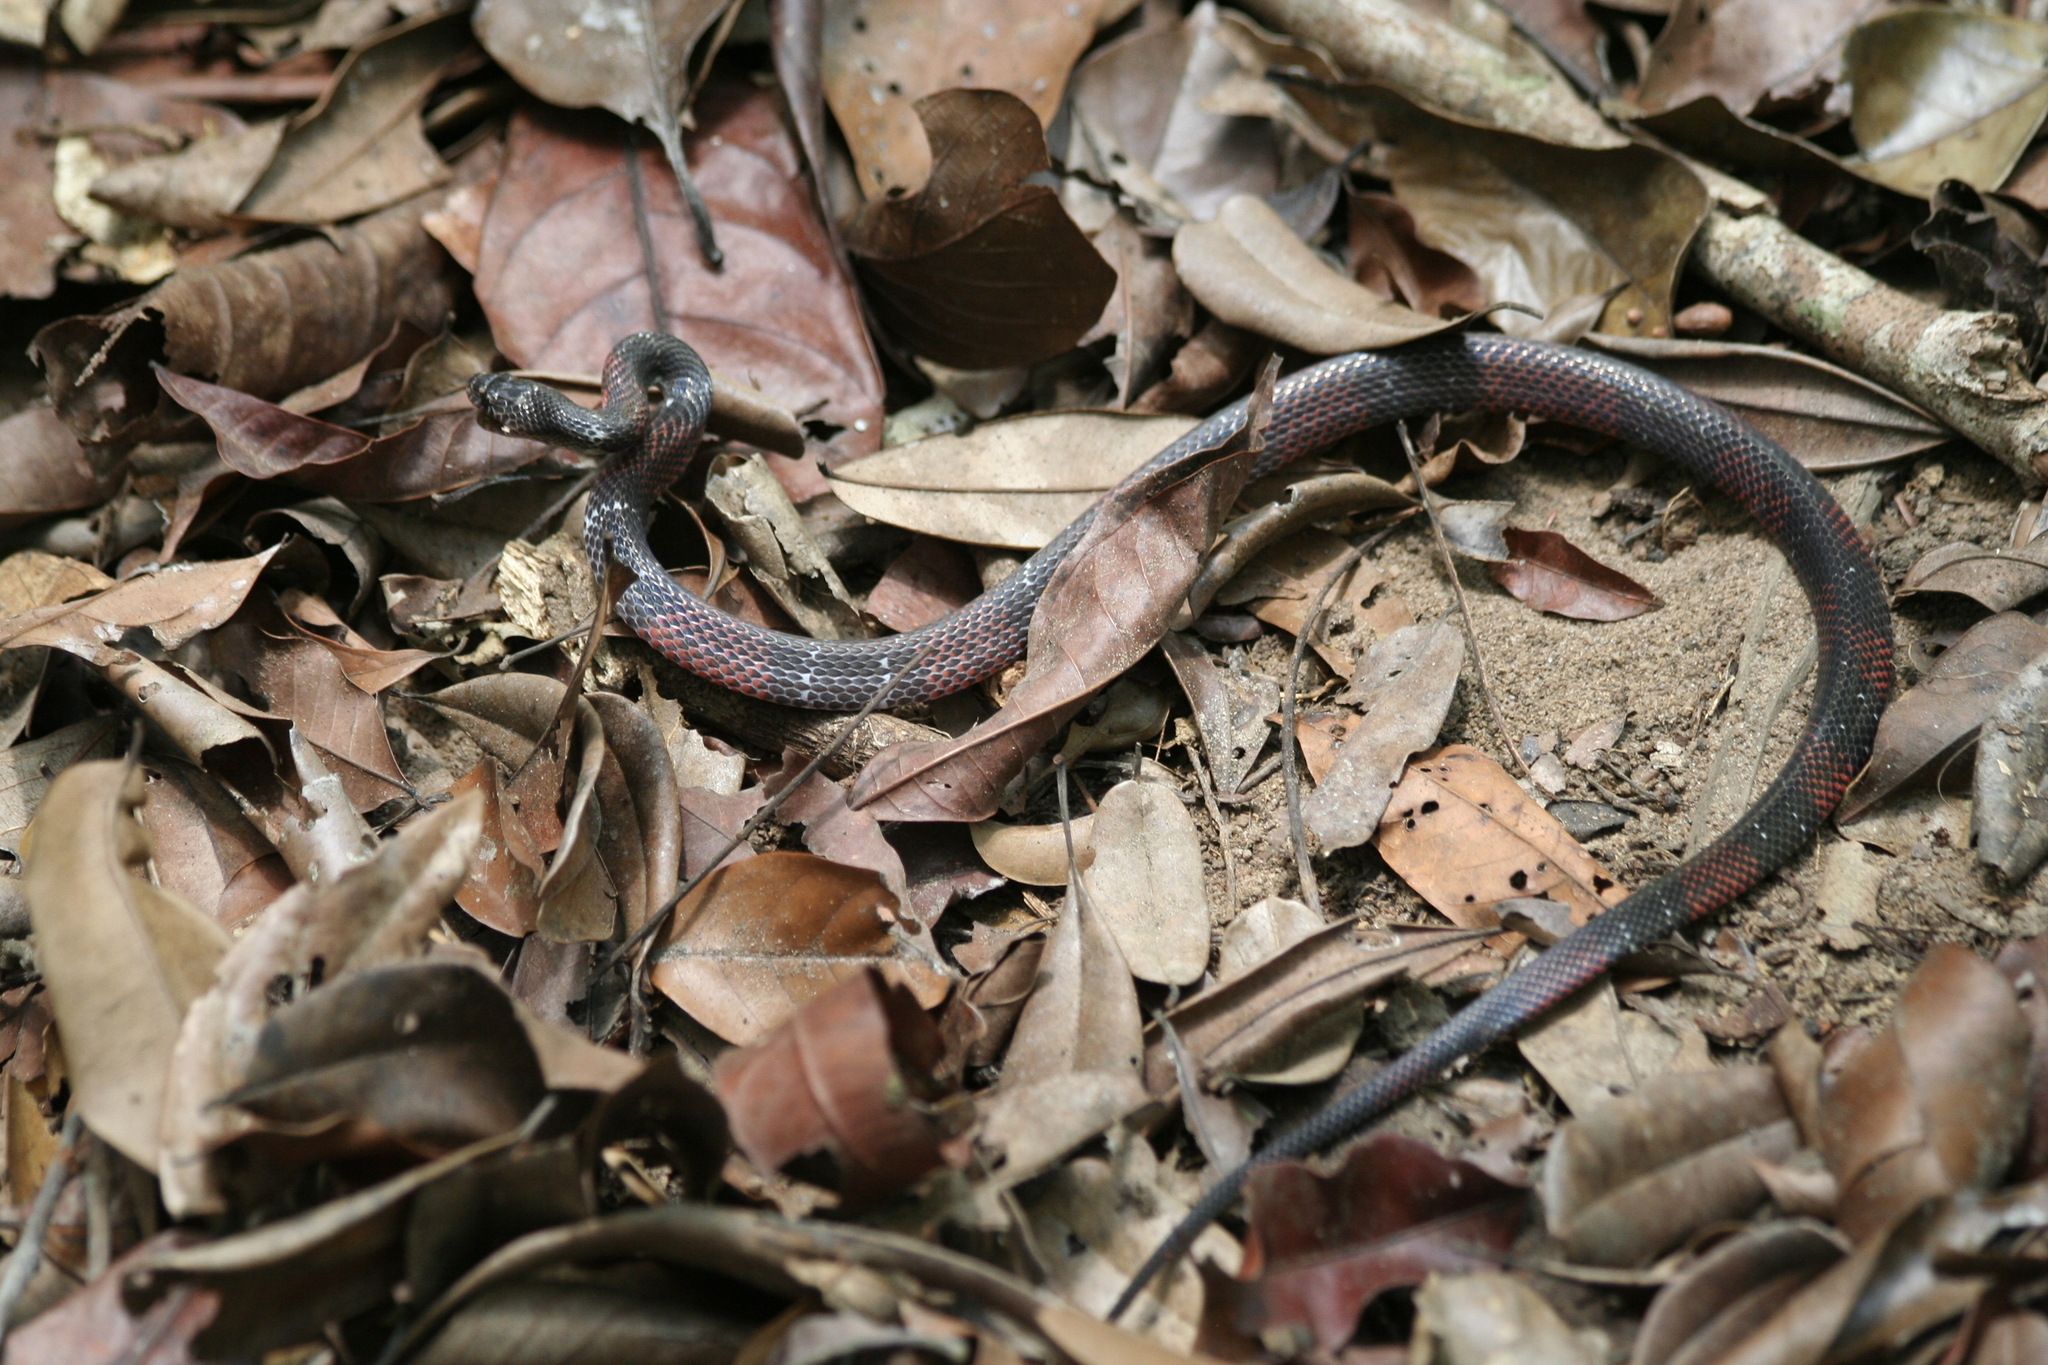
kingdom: Animalia
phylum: Chordata
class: Squamata
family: Colubridae
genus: Oxyrhopus
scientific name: Oxyrhopus melanogenys
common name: Tschudi's false coral snake
